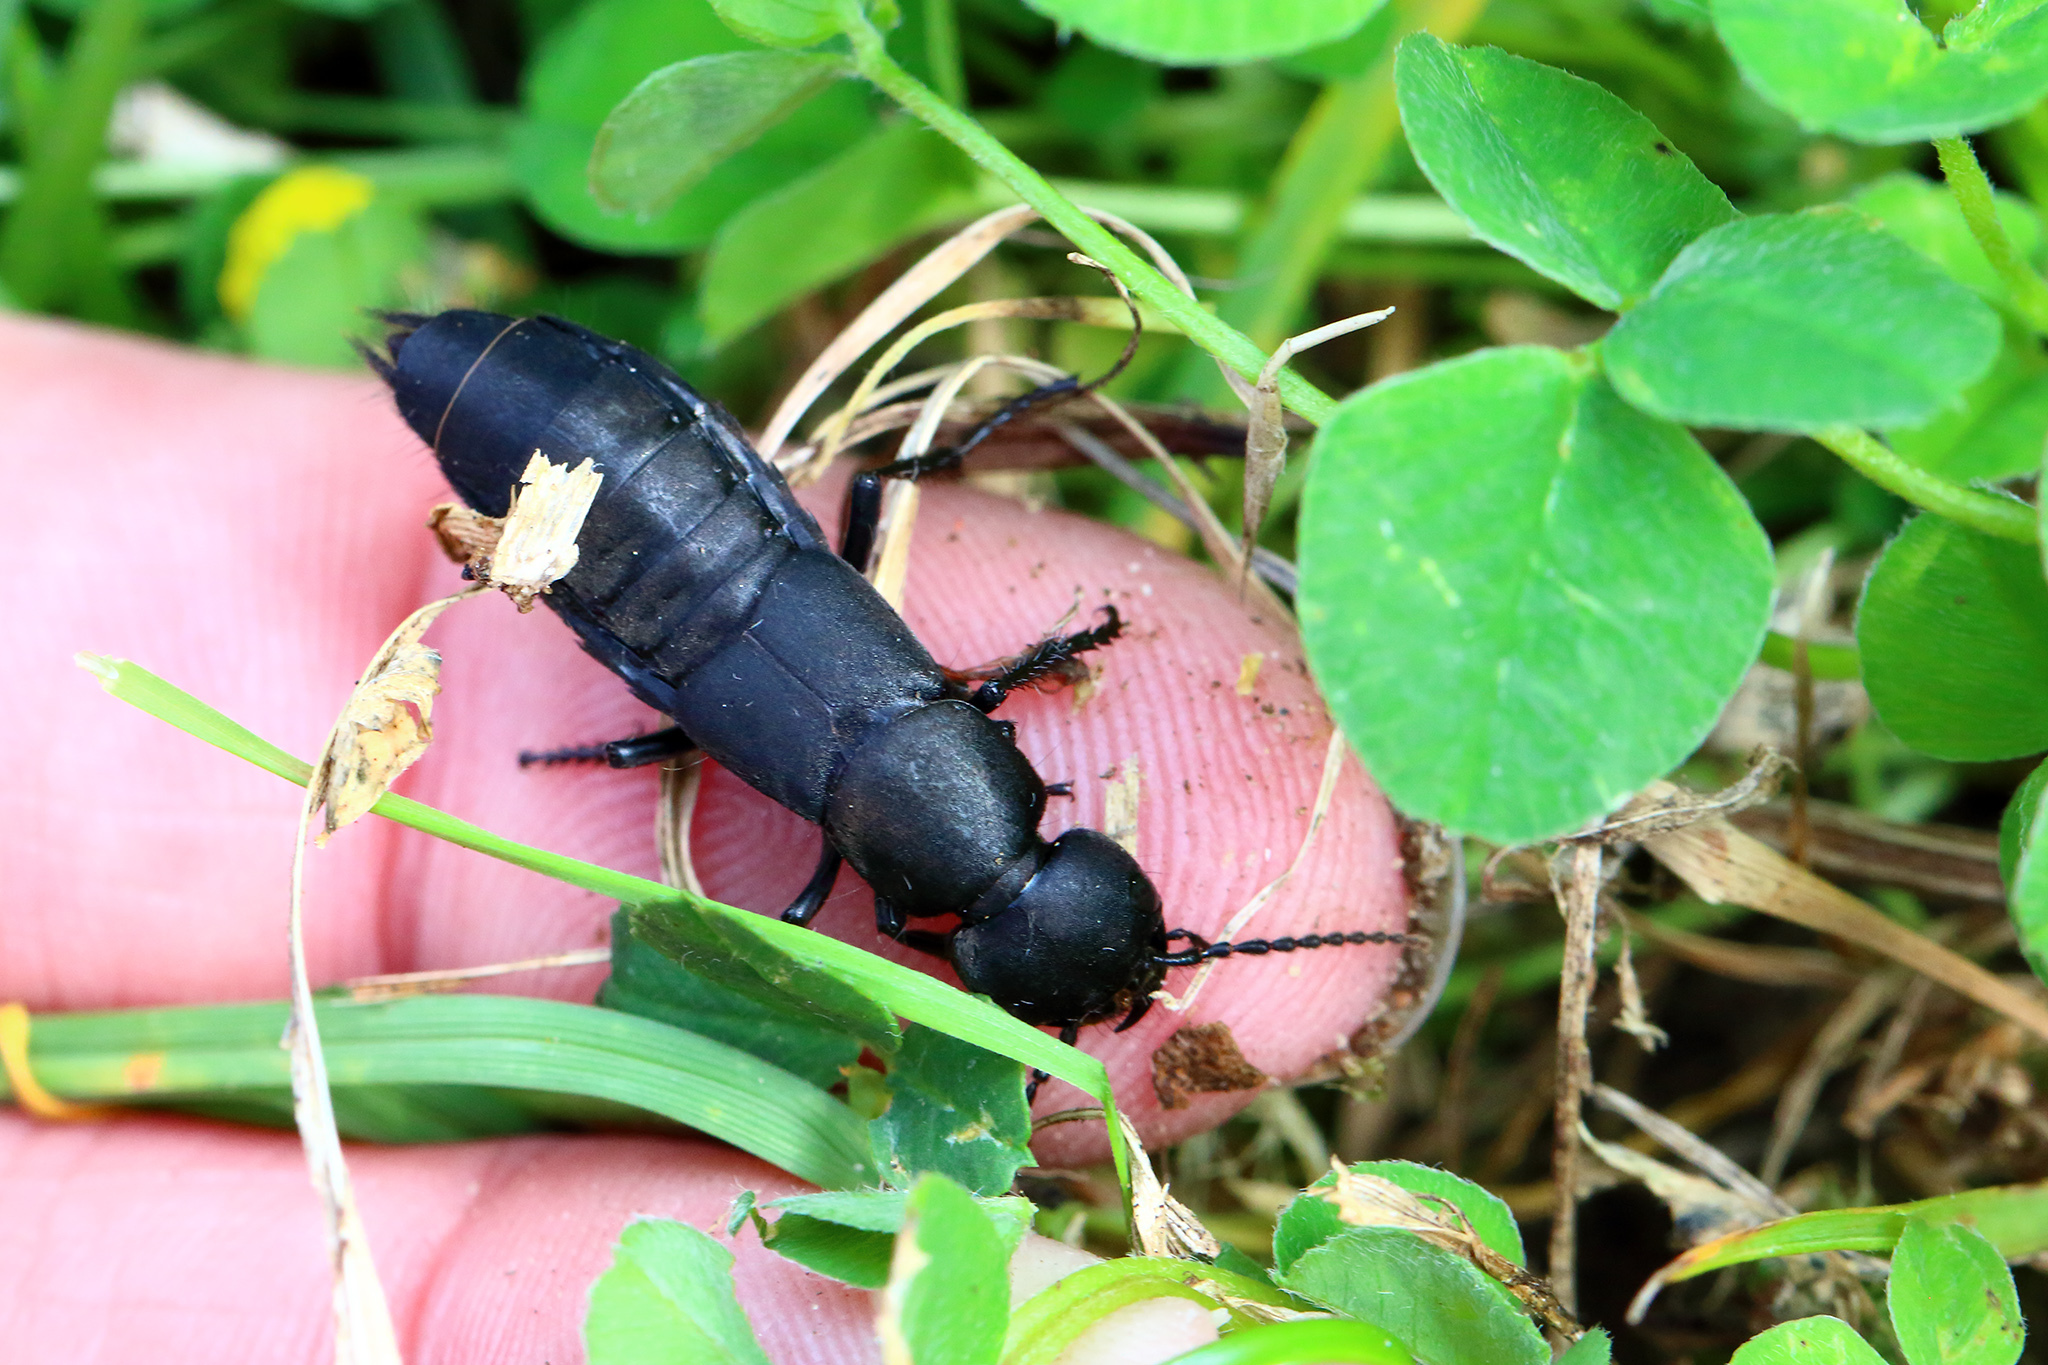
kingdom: Animalia
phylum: Arthropoda
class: Insecta
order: Coleoptera
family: Staphylinidae
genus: Ocypus
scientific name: Ocypus olens
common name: Devil's coach-horse
